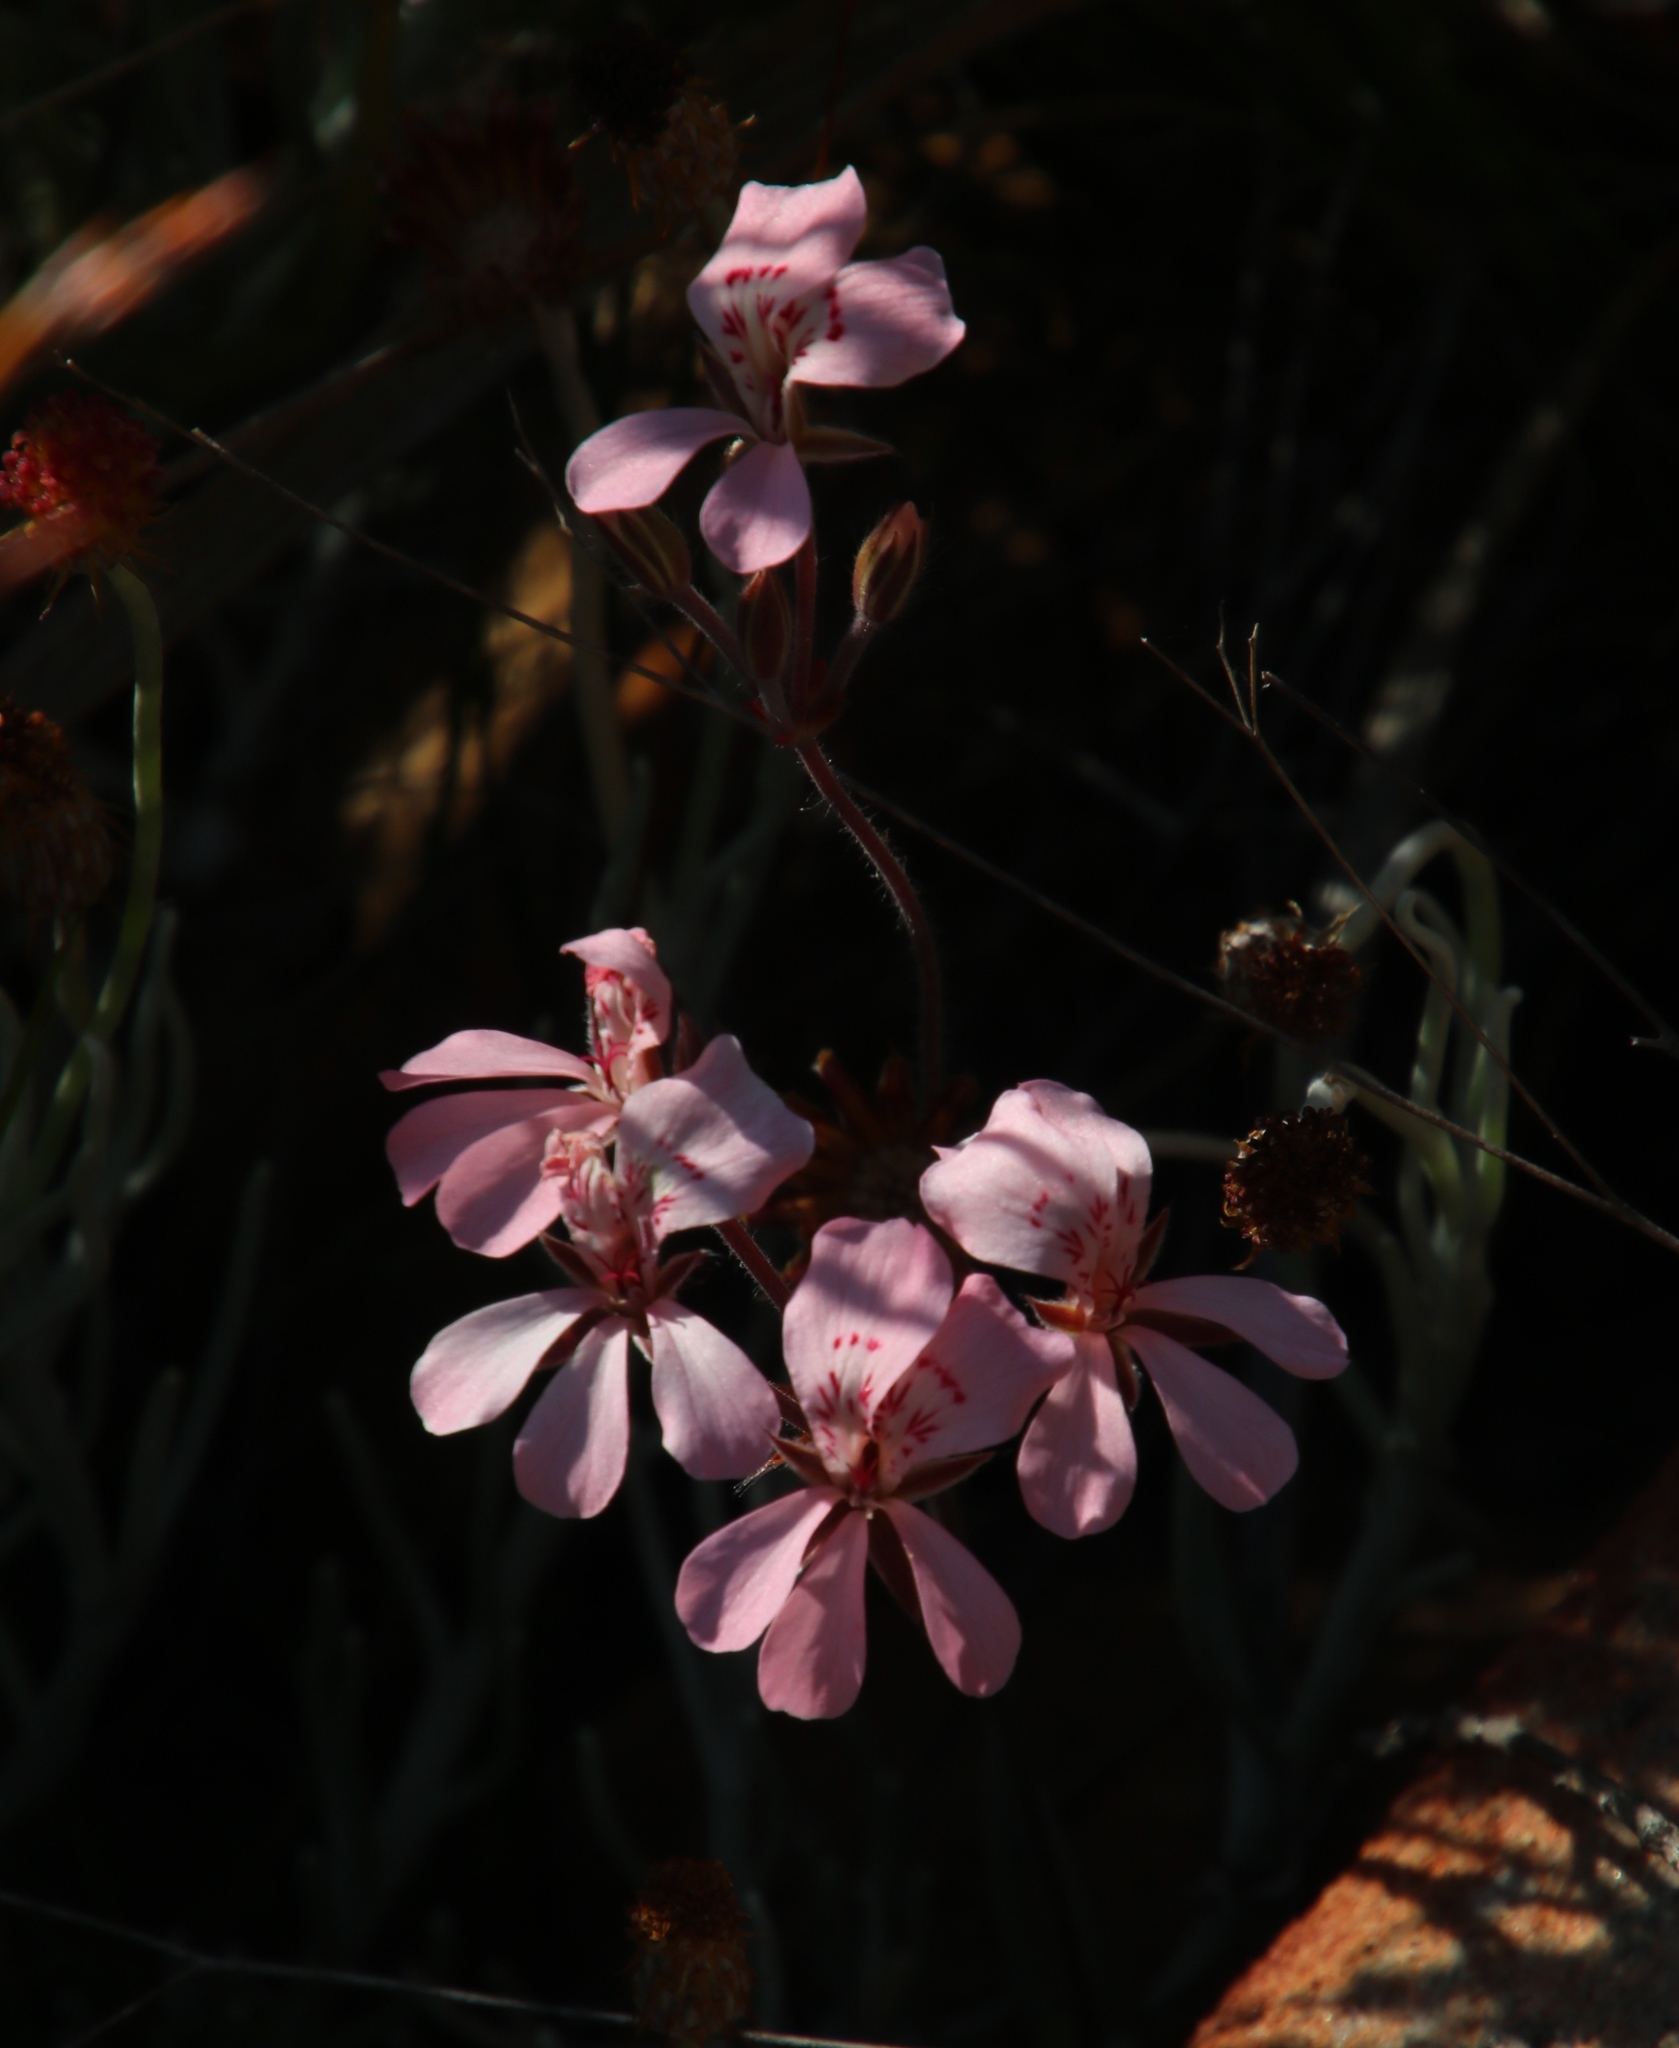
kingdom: Plantae
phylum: Tracheophyta
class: Magnoliopsida
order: Geraniales
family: Geraniaceae
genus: Pelargonium
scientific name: Pelargonium pinnatum
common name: Pinnated pelargonium
